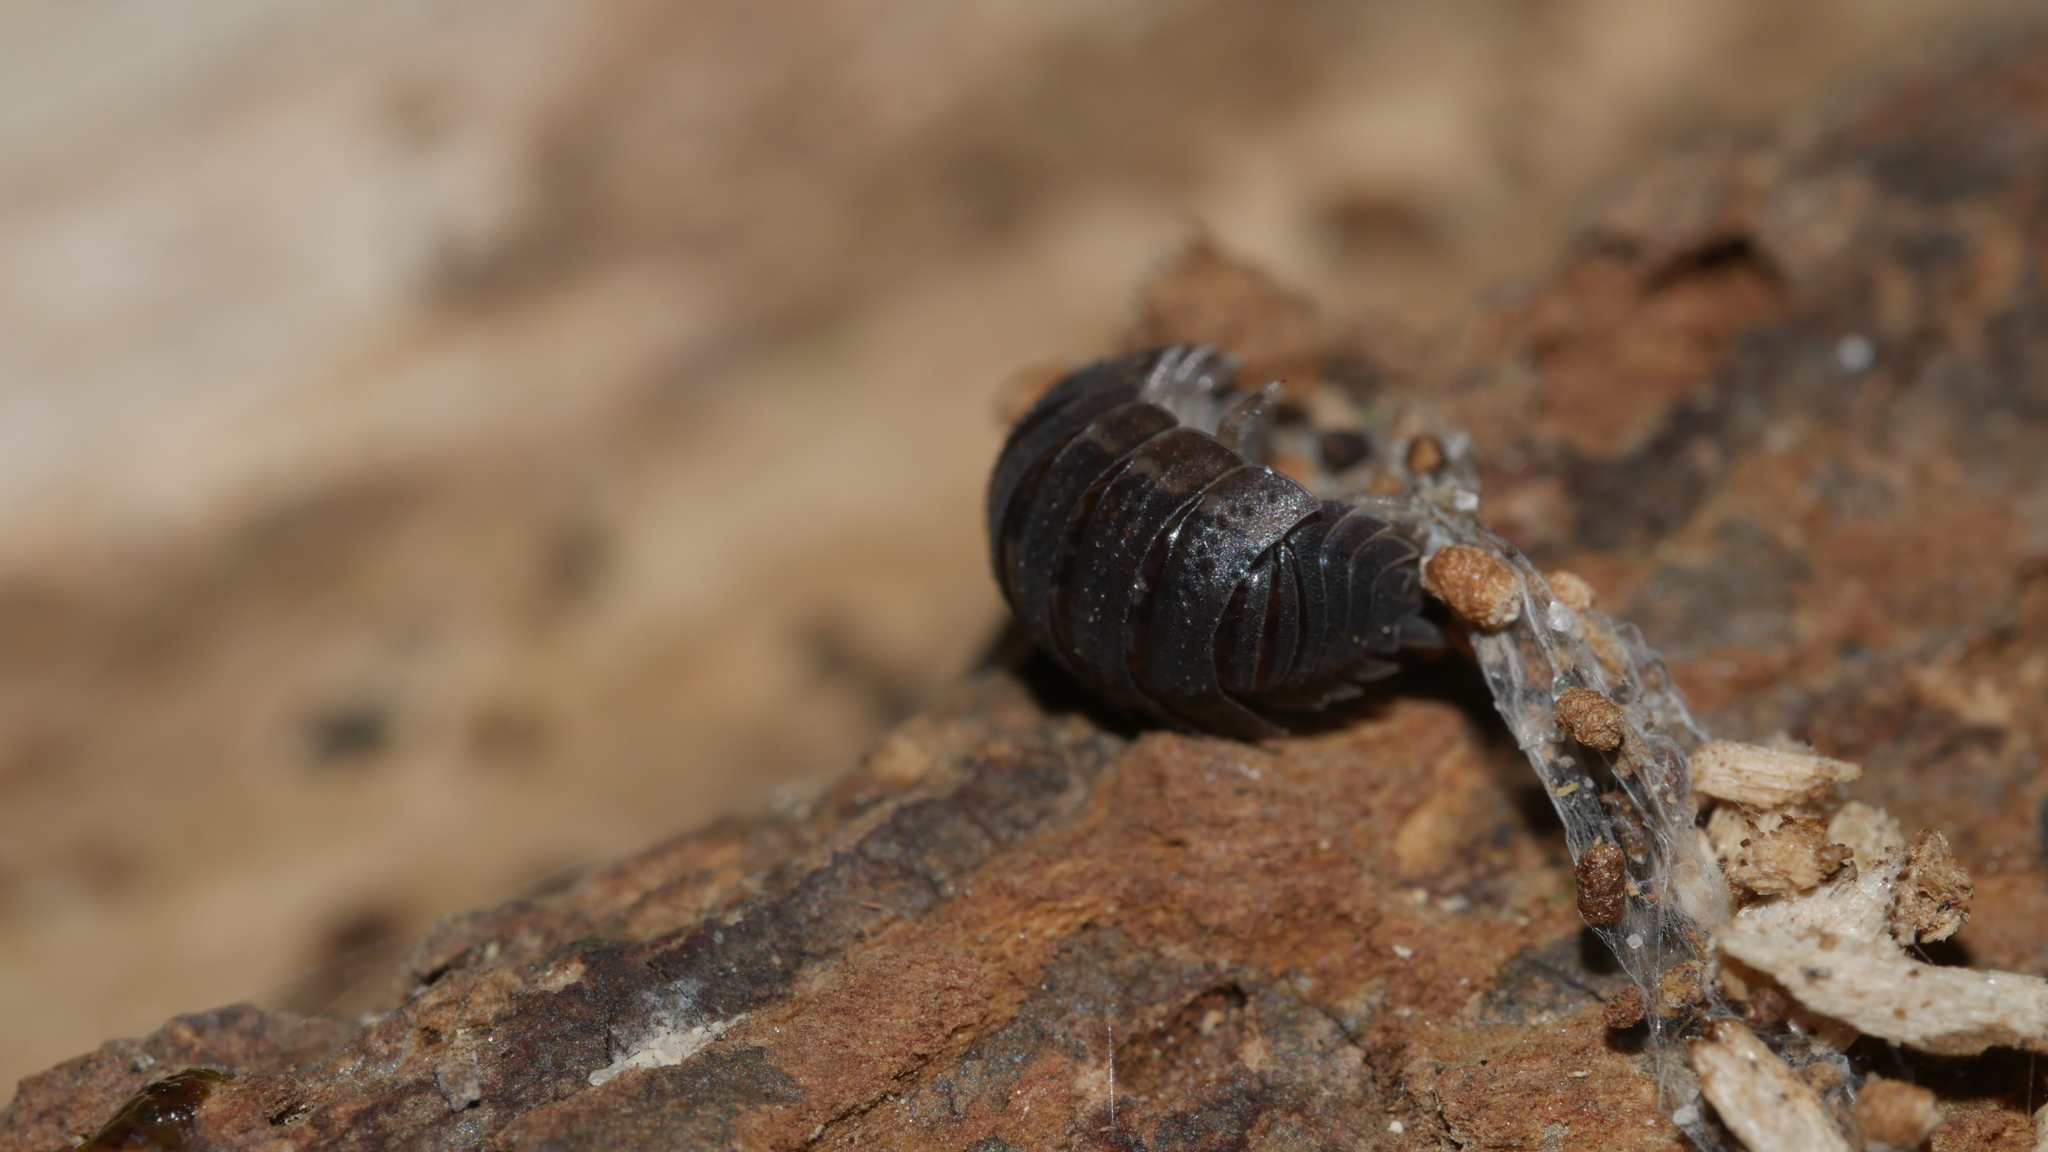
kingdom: Animalia
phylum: Arthropoda
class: Malacostraca
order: Isopoda
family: Porcellionidae
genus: Porcellio
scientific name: Porcellio scaber
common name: Common rough woodlouse
